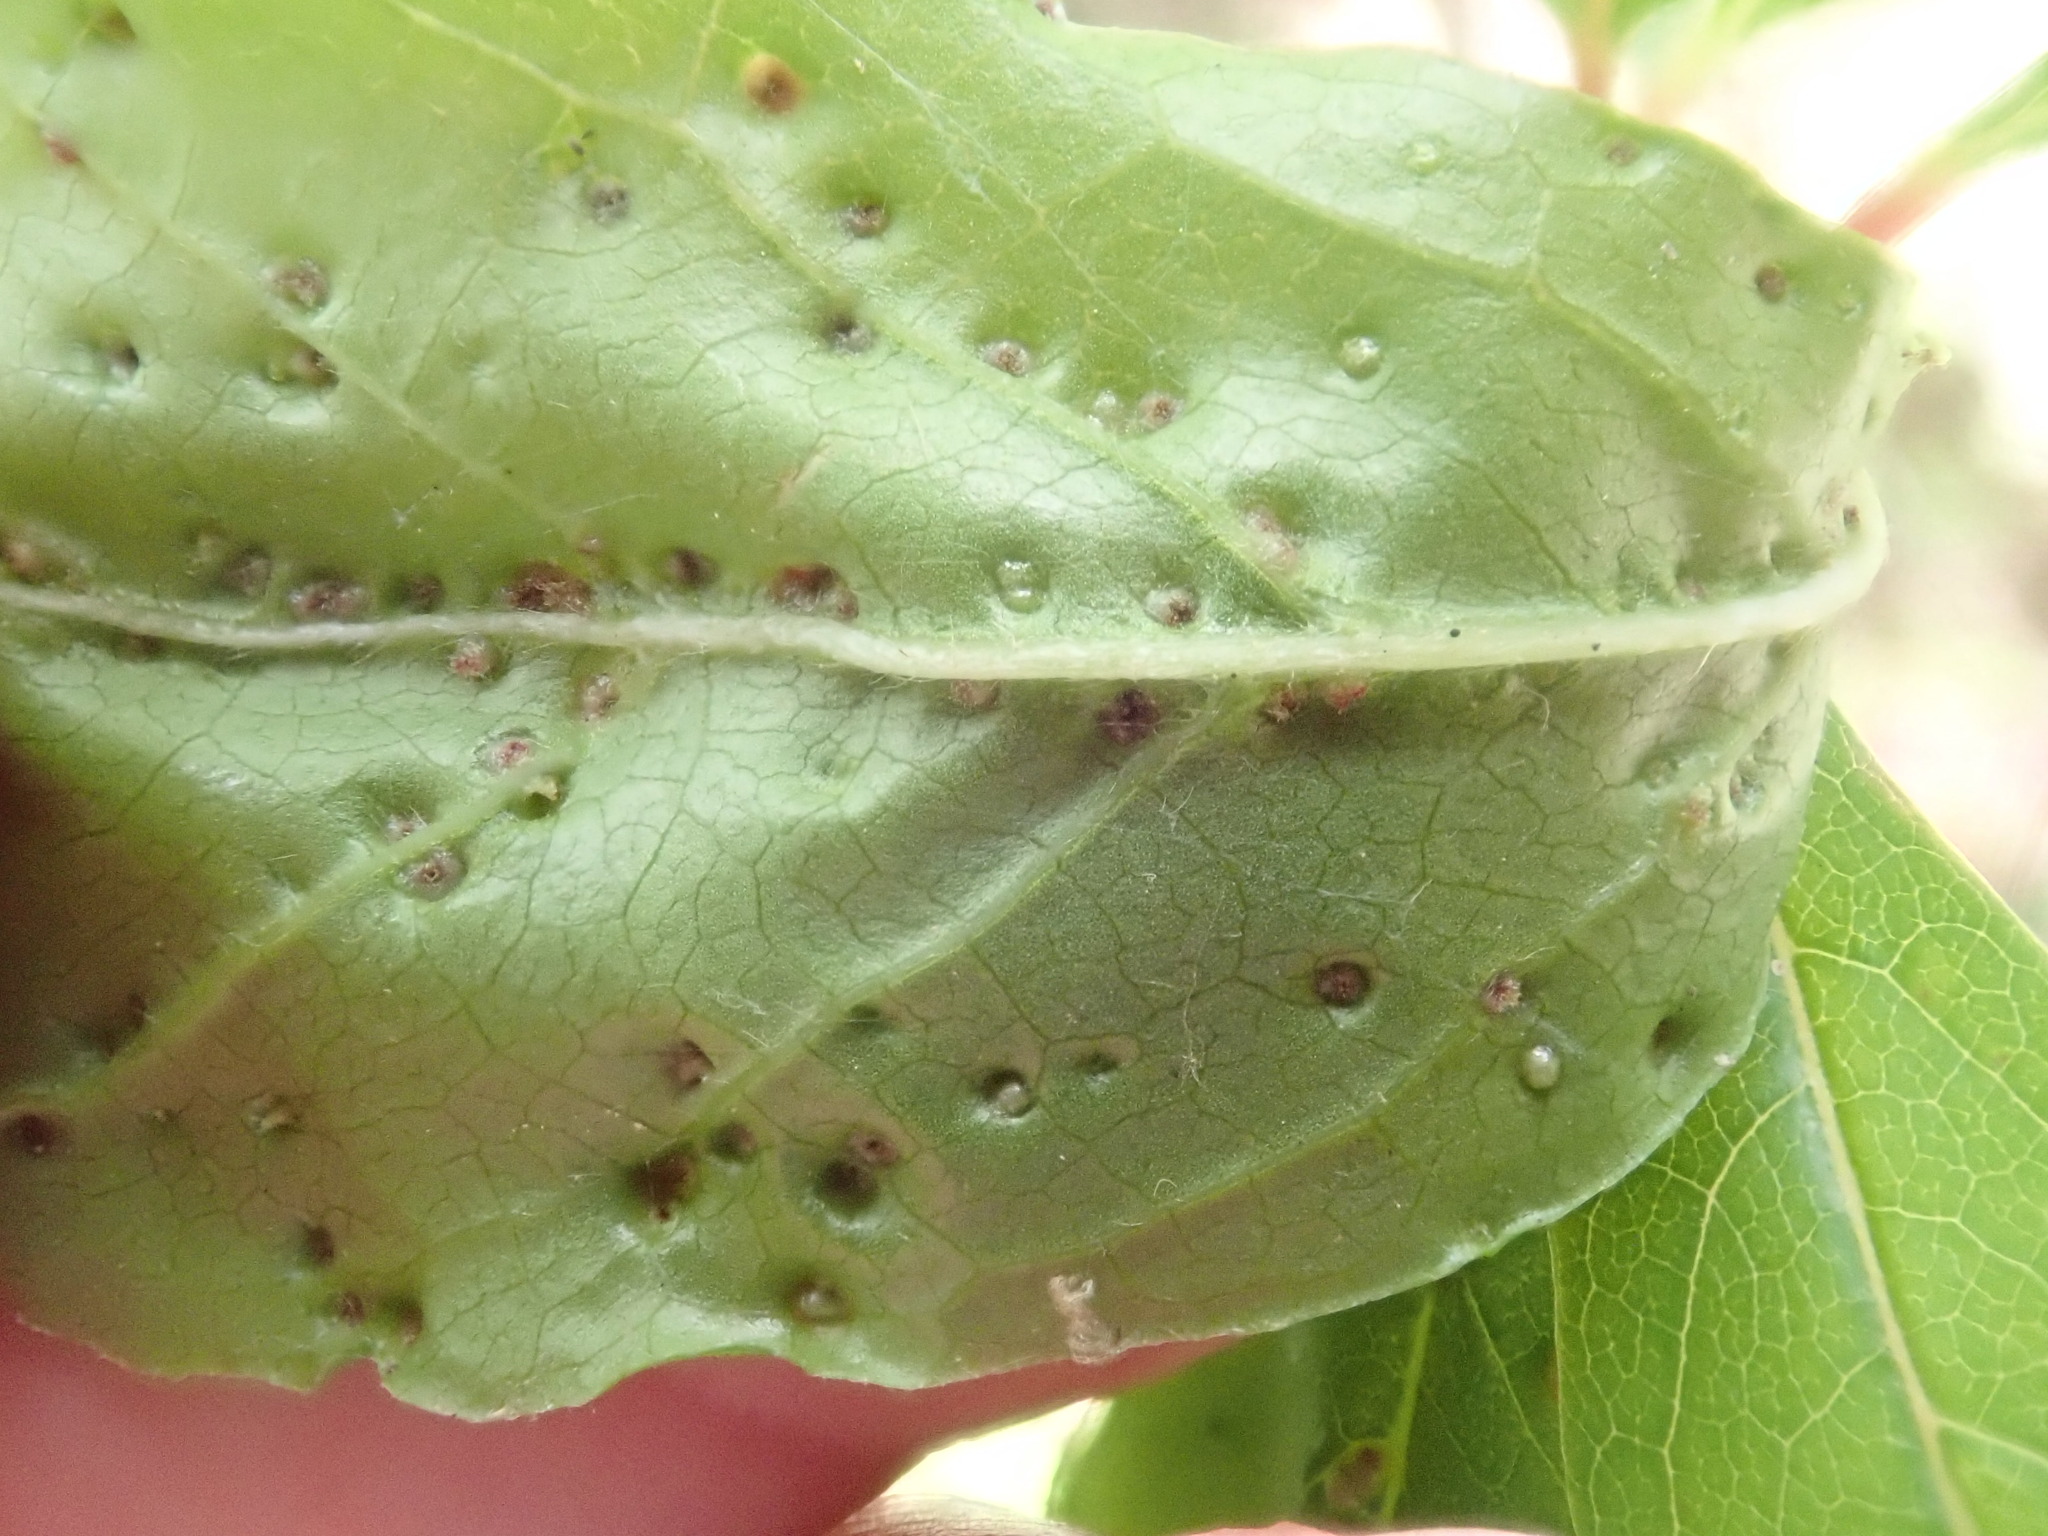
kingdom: Animalia
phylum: Arthropoda
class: Arachnida
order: Trombidiformes
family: Eriophyidae
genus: Aceria
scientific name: Aceria
